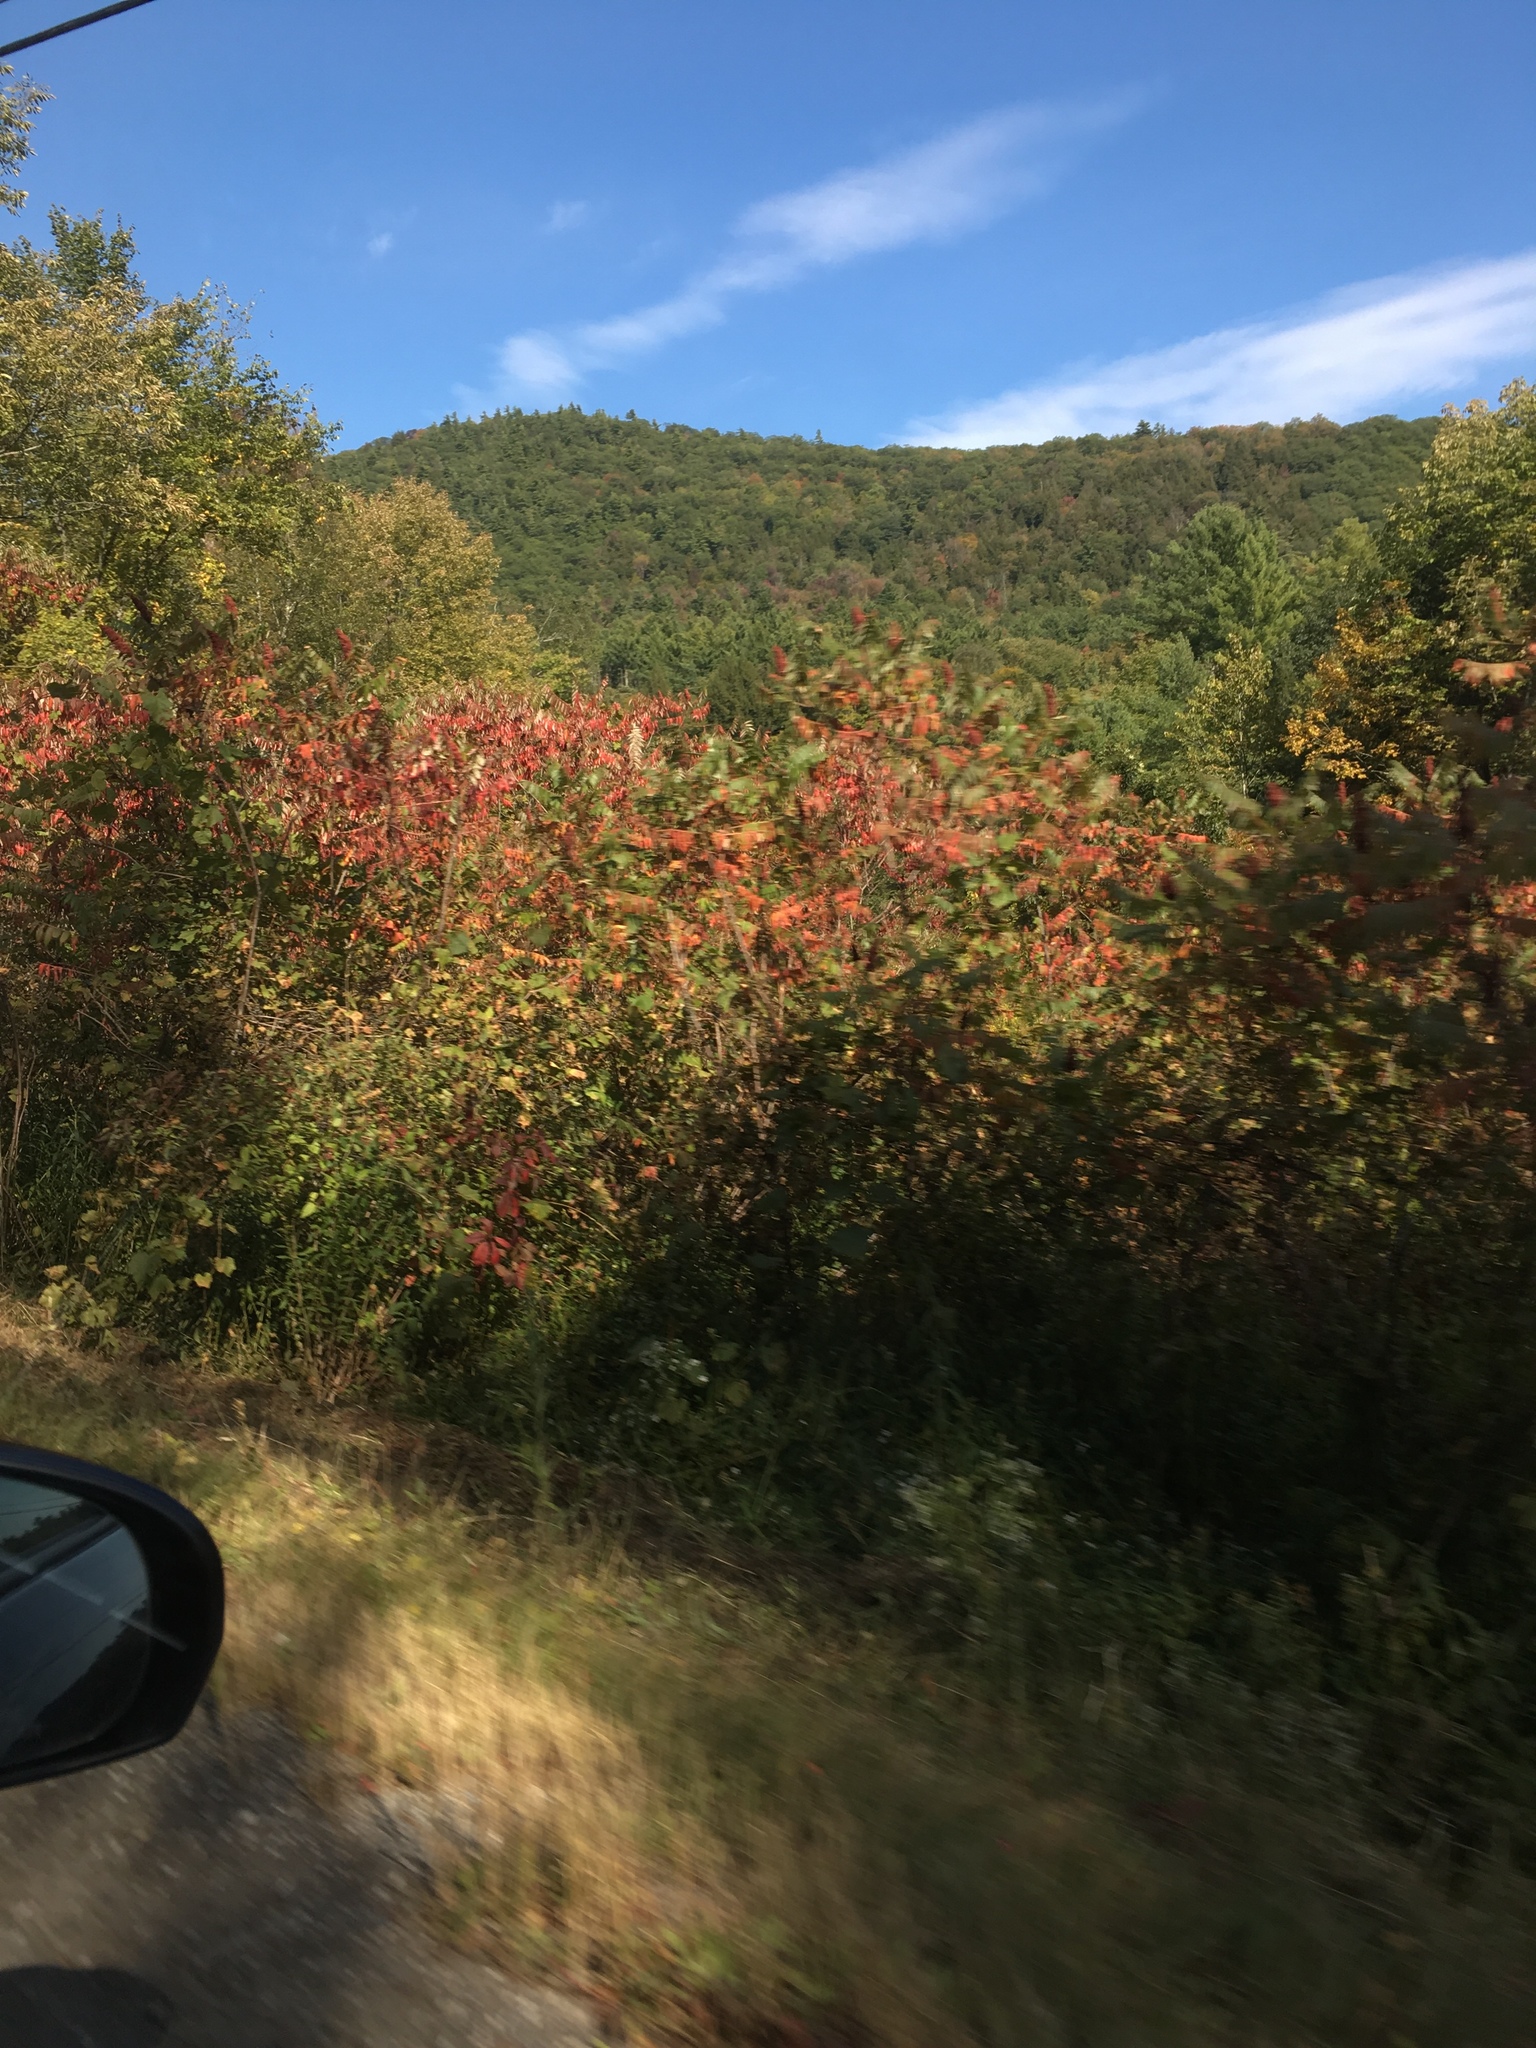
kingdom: Plantae
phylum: Tracheophyta
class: Magnoliopsida
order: Sapindales
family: Anacardiaceae
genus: Rhus
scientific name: Rhus typhina
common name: Staghorn sumac
